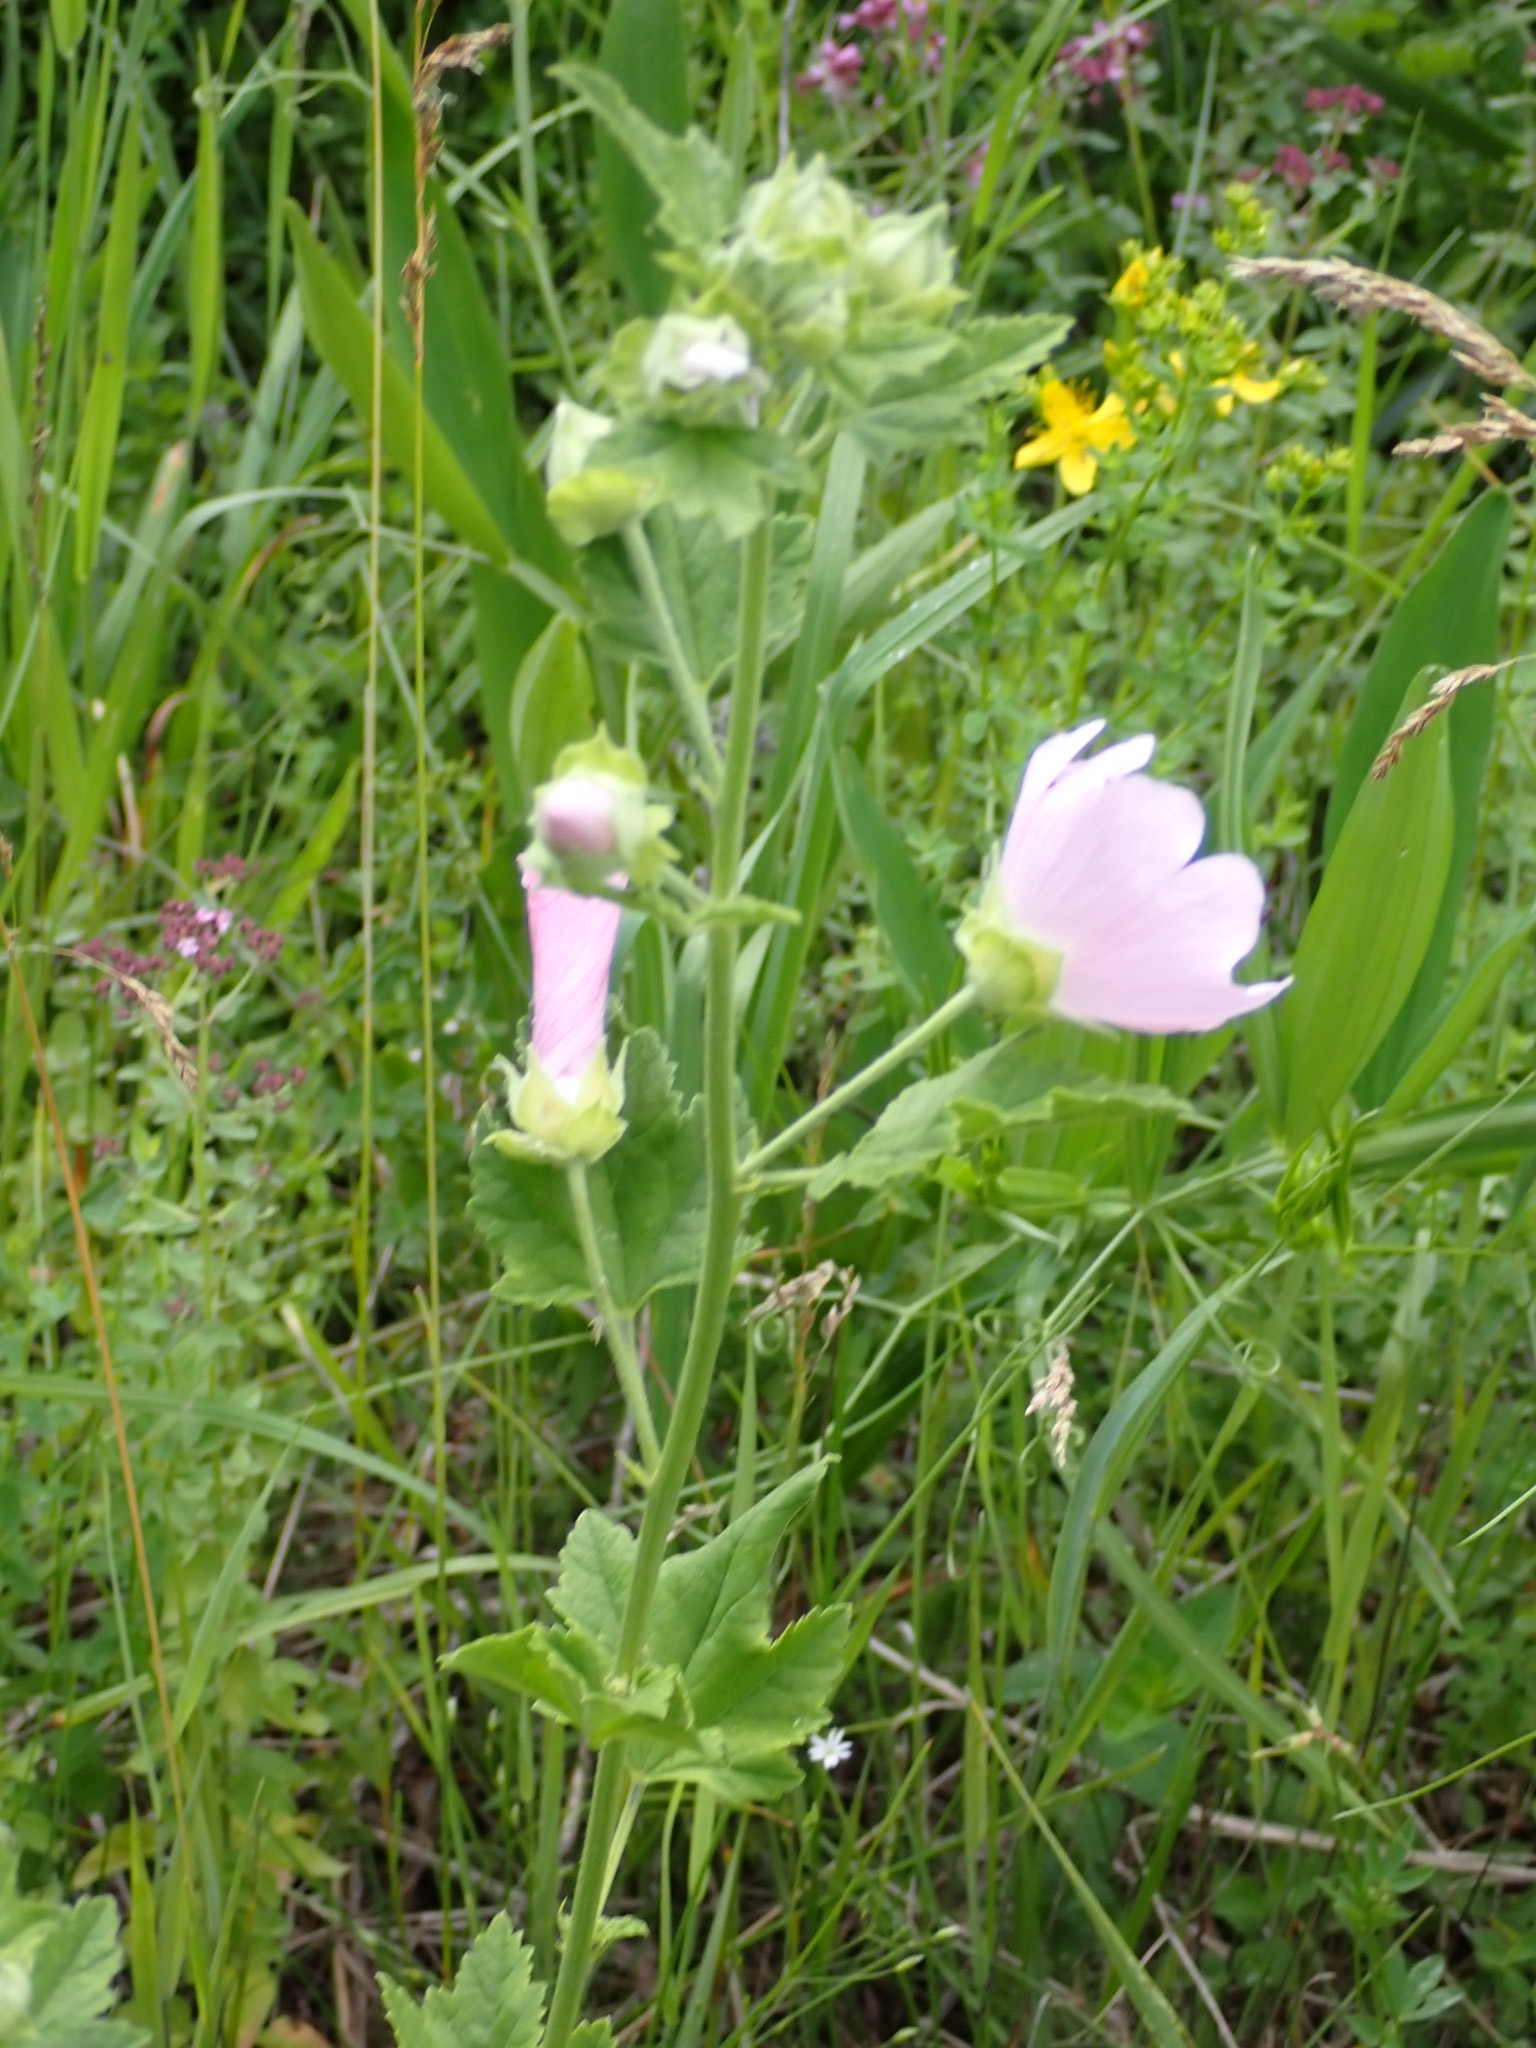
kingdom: Plantae
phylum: Tracheophyta
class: Magnoliopsida
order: Malvales
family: Malvaceae
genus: Malva
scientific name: Malva thuringiaca
